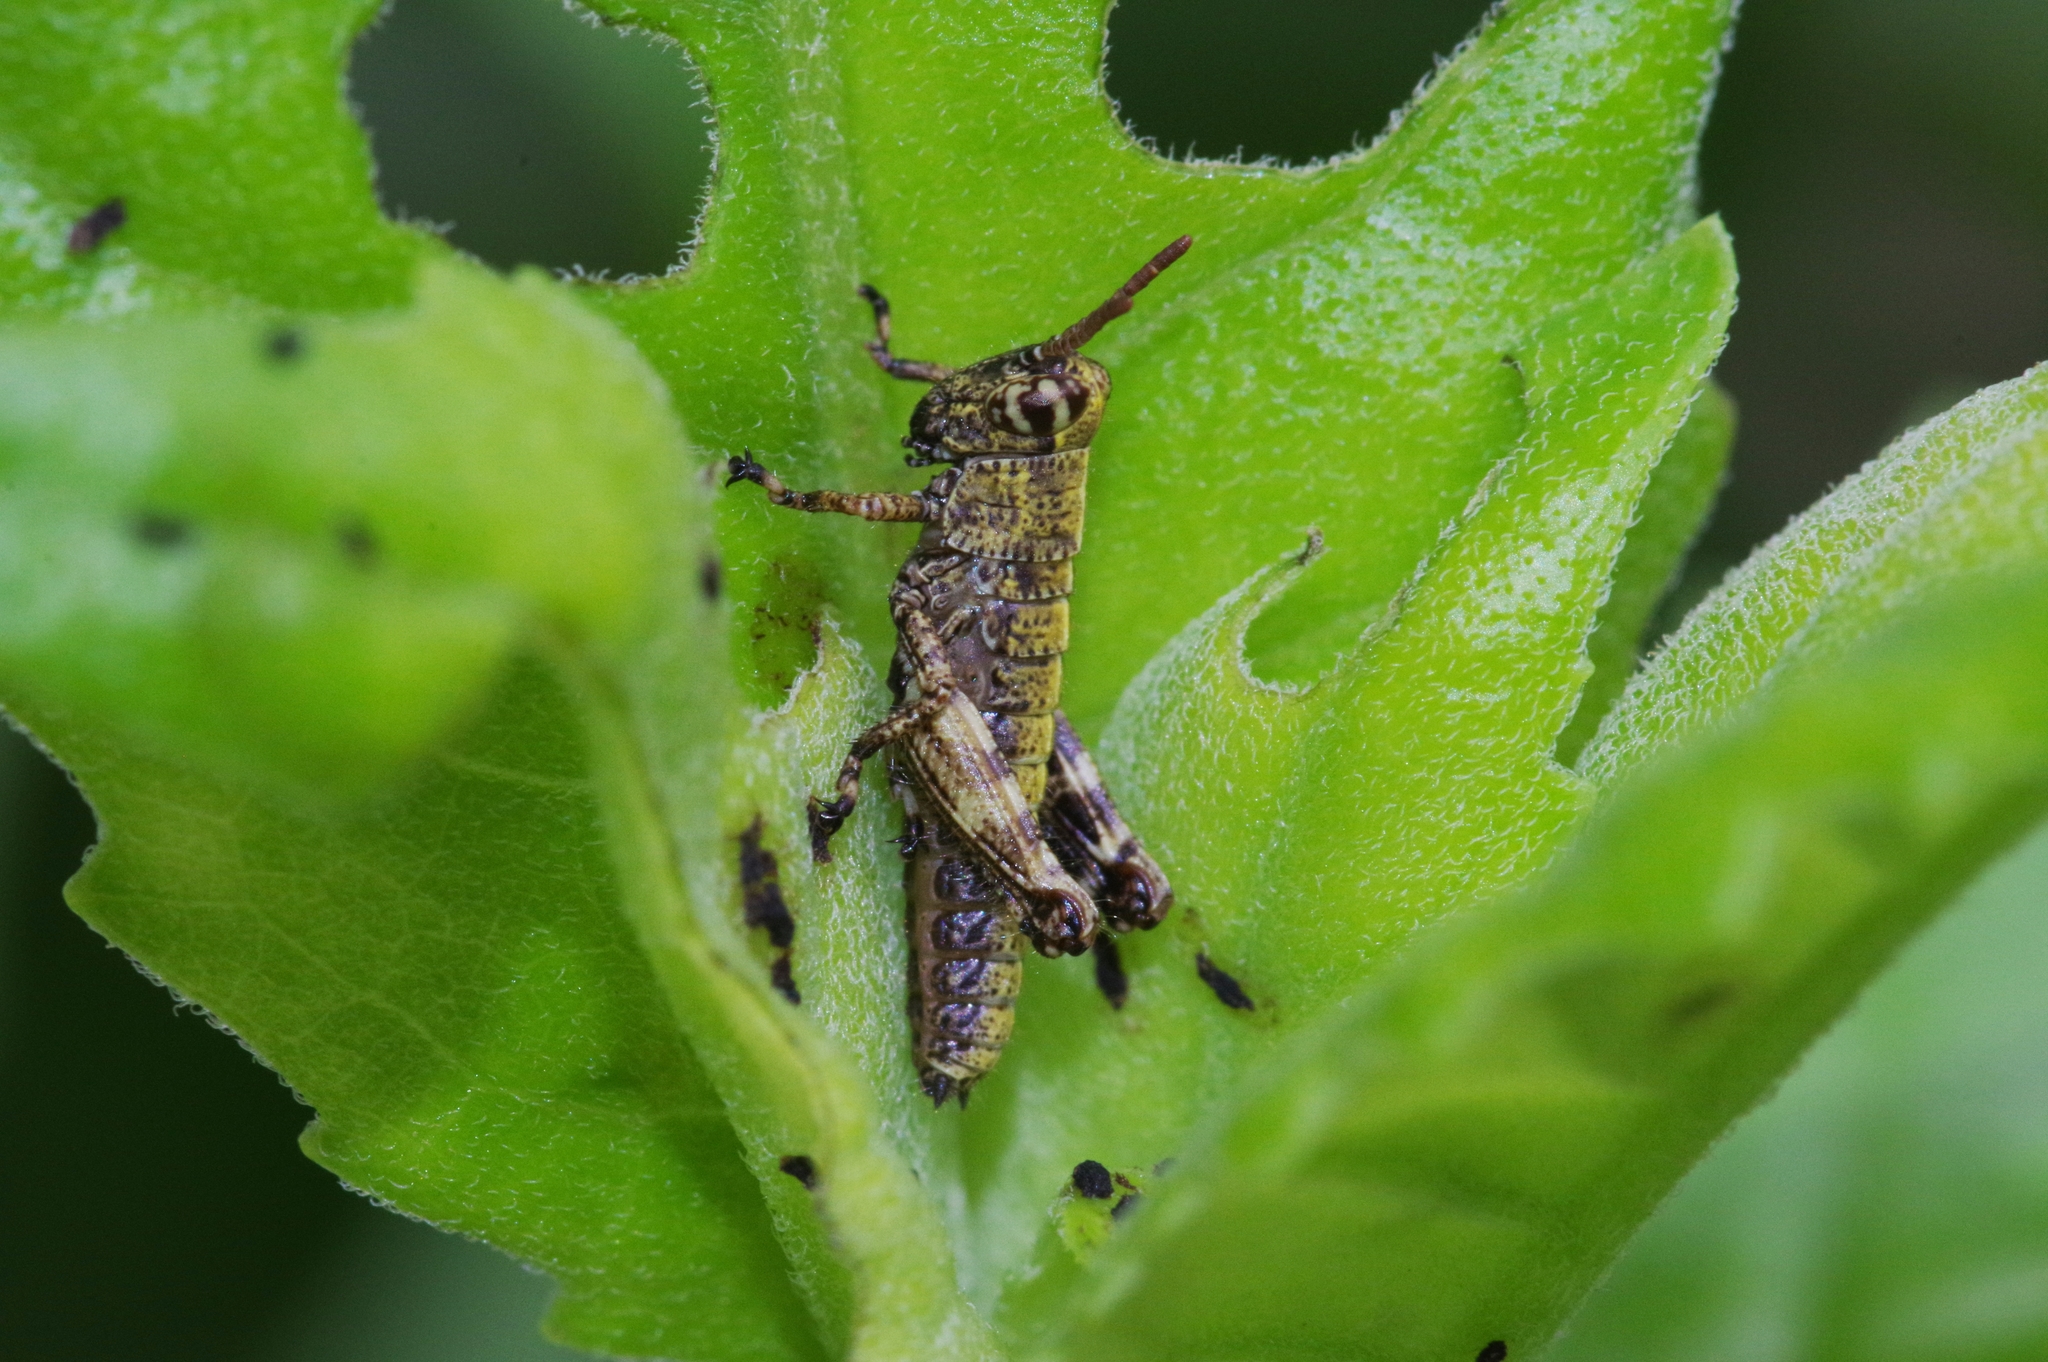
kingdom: Animalia
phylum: Arthropoda
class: Insecta
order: Orthoptera
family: Acrididae
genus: Fruhstorferiola
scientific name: Fruhstorferiola okinawaensis
